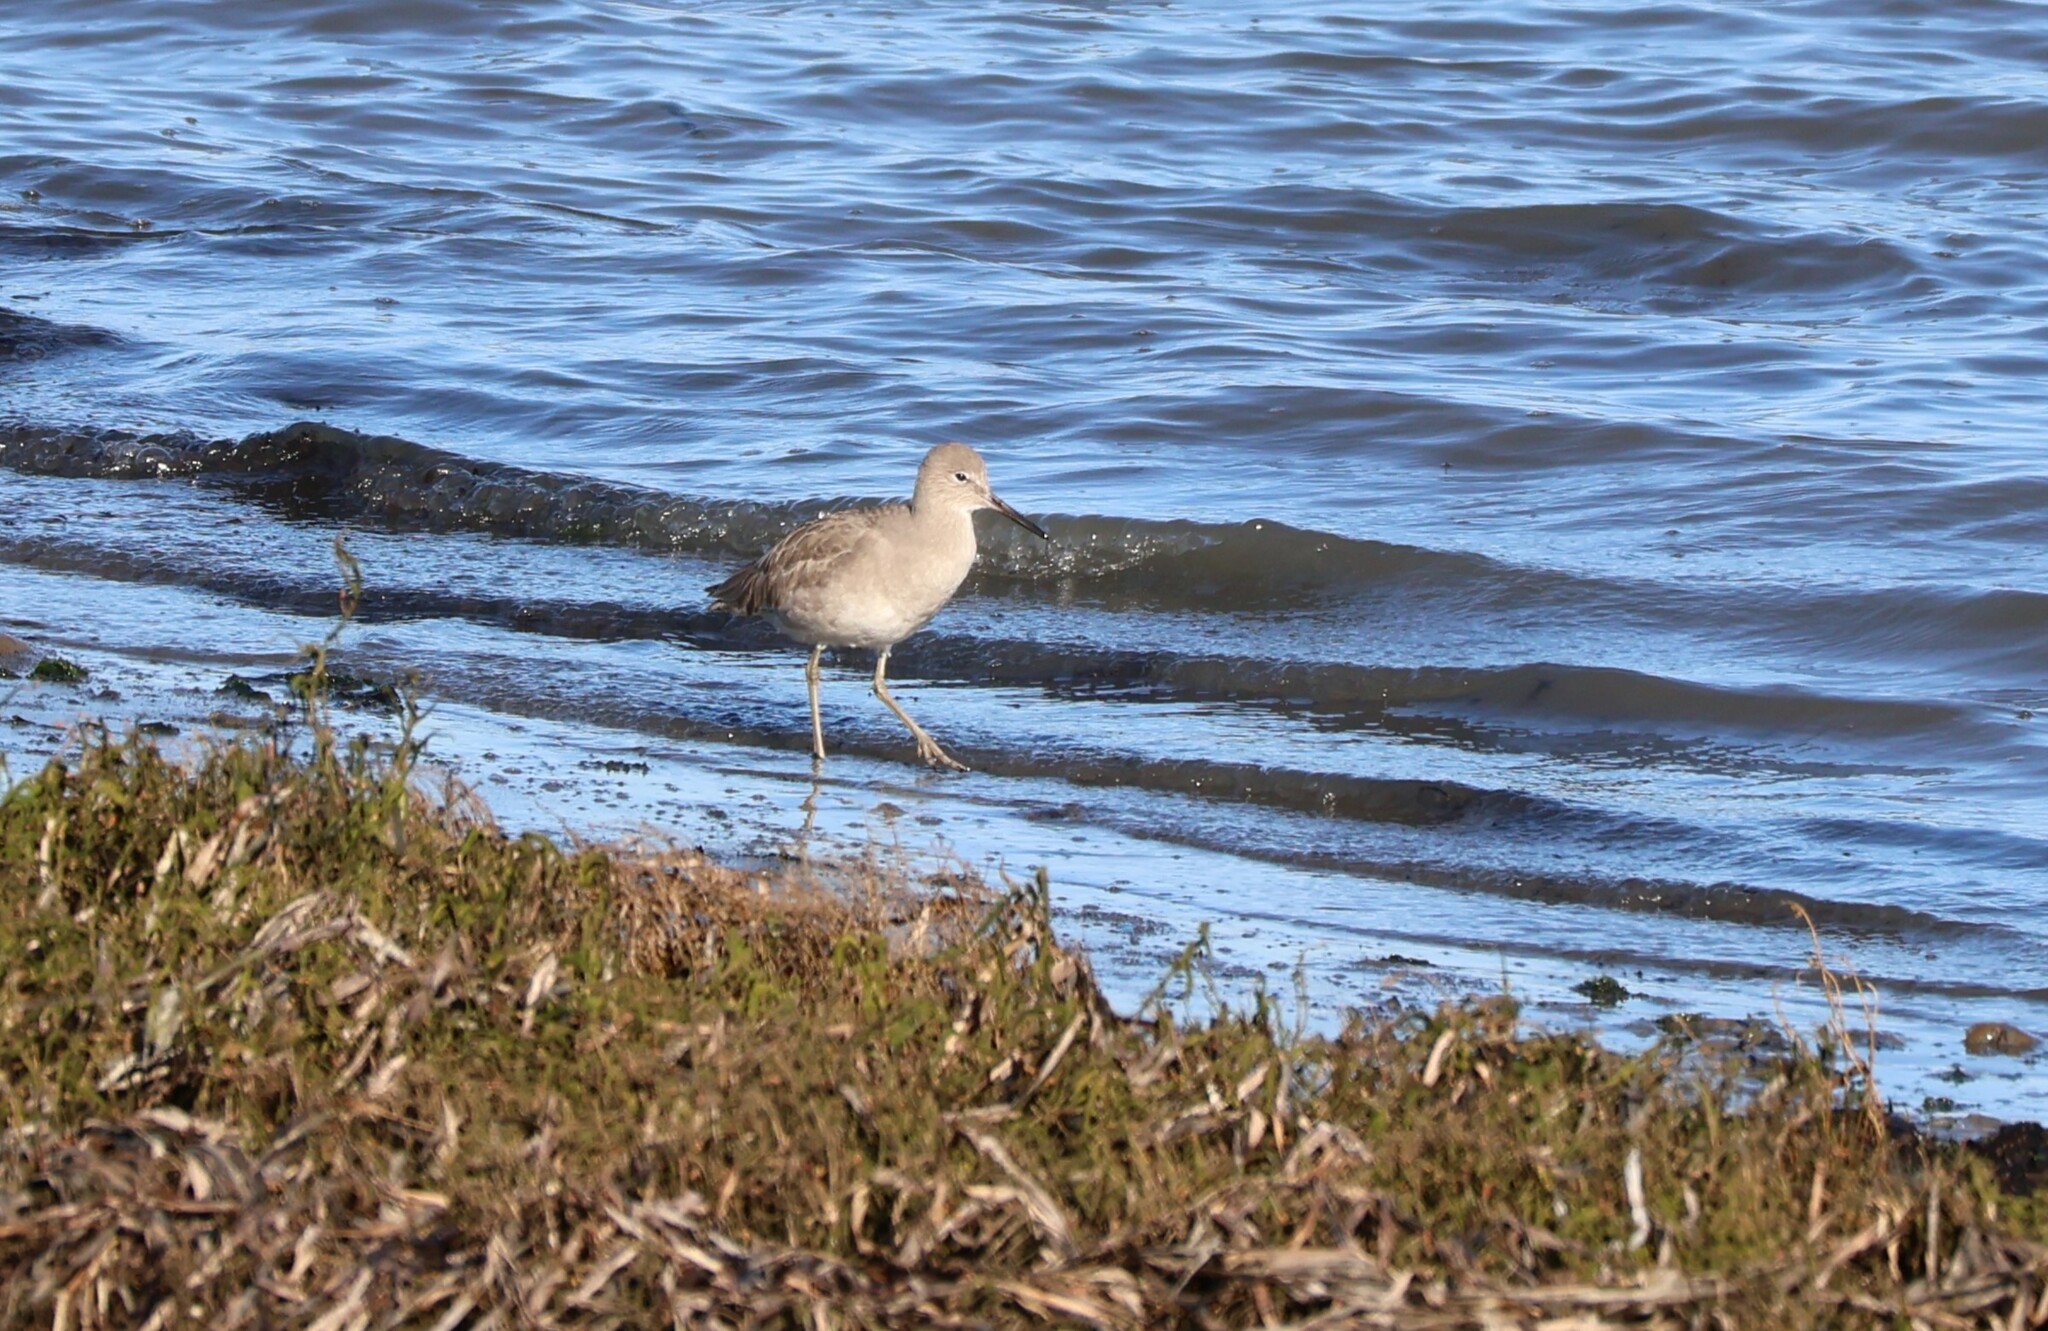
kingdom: Animalia
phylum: Chordata
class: Aves
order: Charadriiformes
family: Scolopacidae
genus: Tringa
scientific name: Tringa semipalmata
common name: Willet
